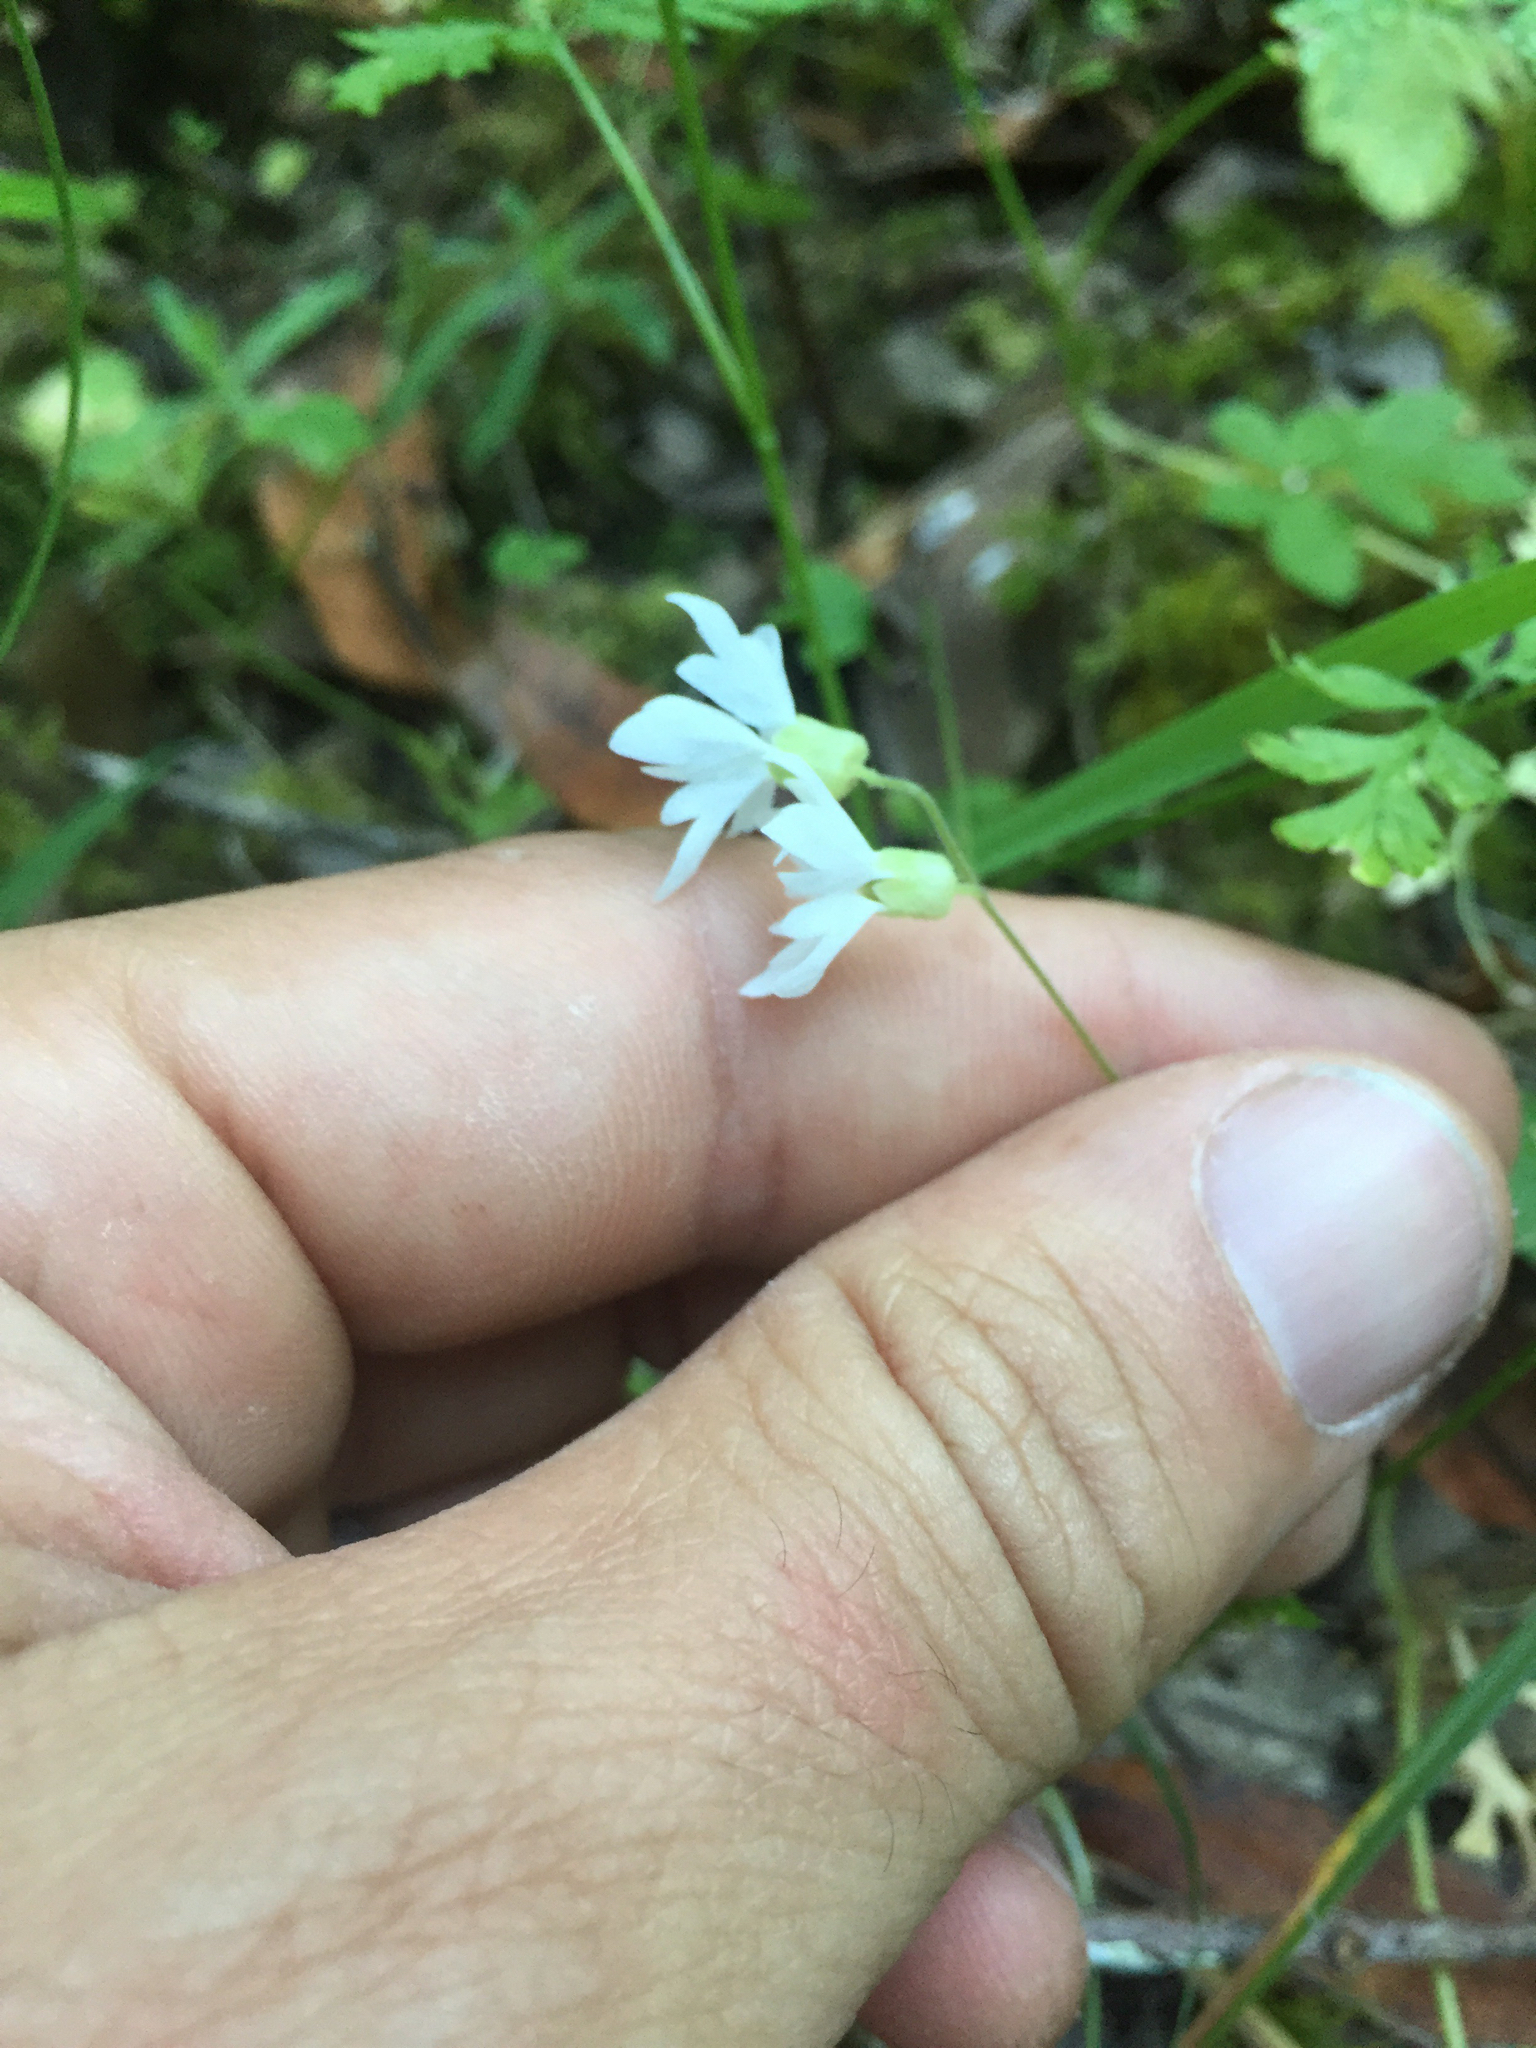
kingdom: Plantae
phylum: Tracheophyta
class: Magnoliopsida
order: Saxifragales
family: Saxifragaceae
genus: Lithophragma
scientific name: Lithophragma heterophyllum
